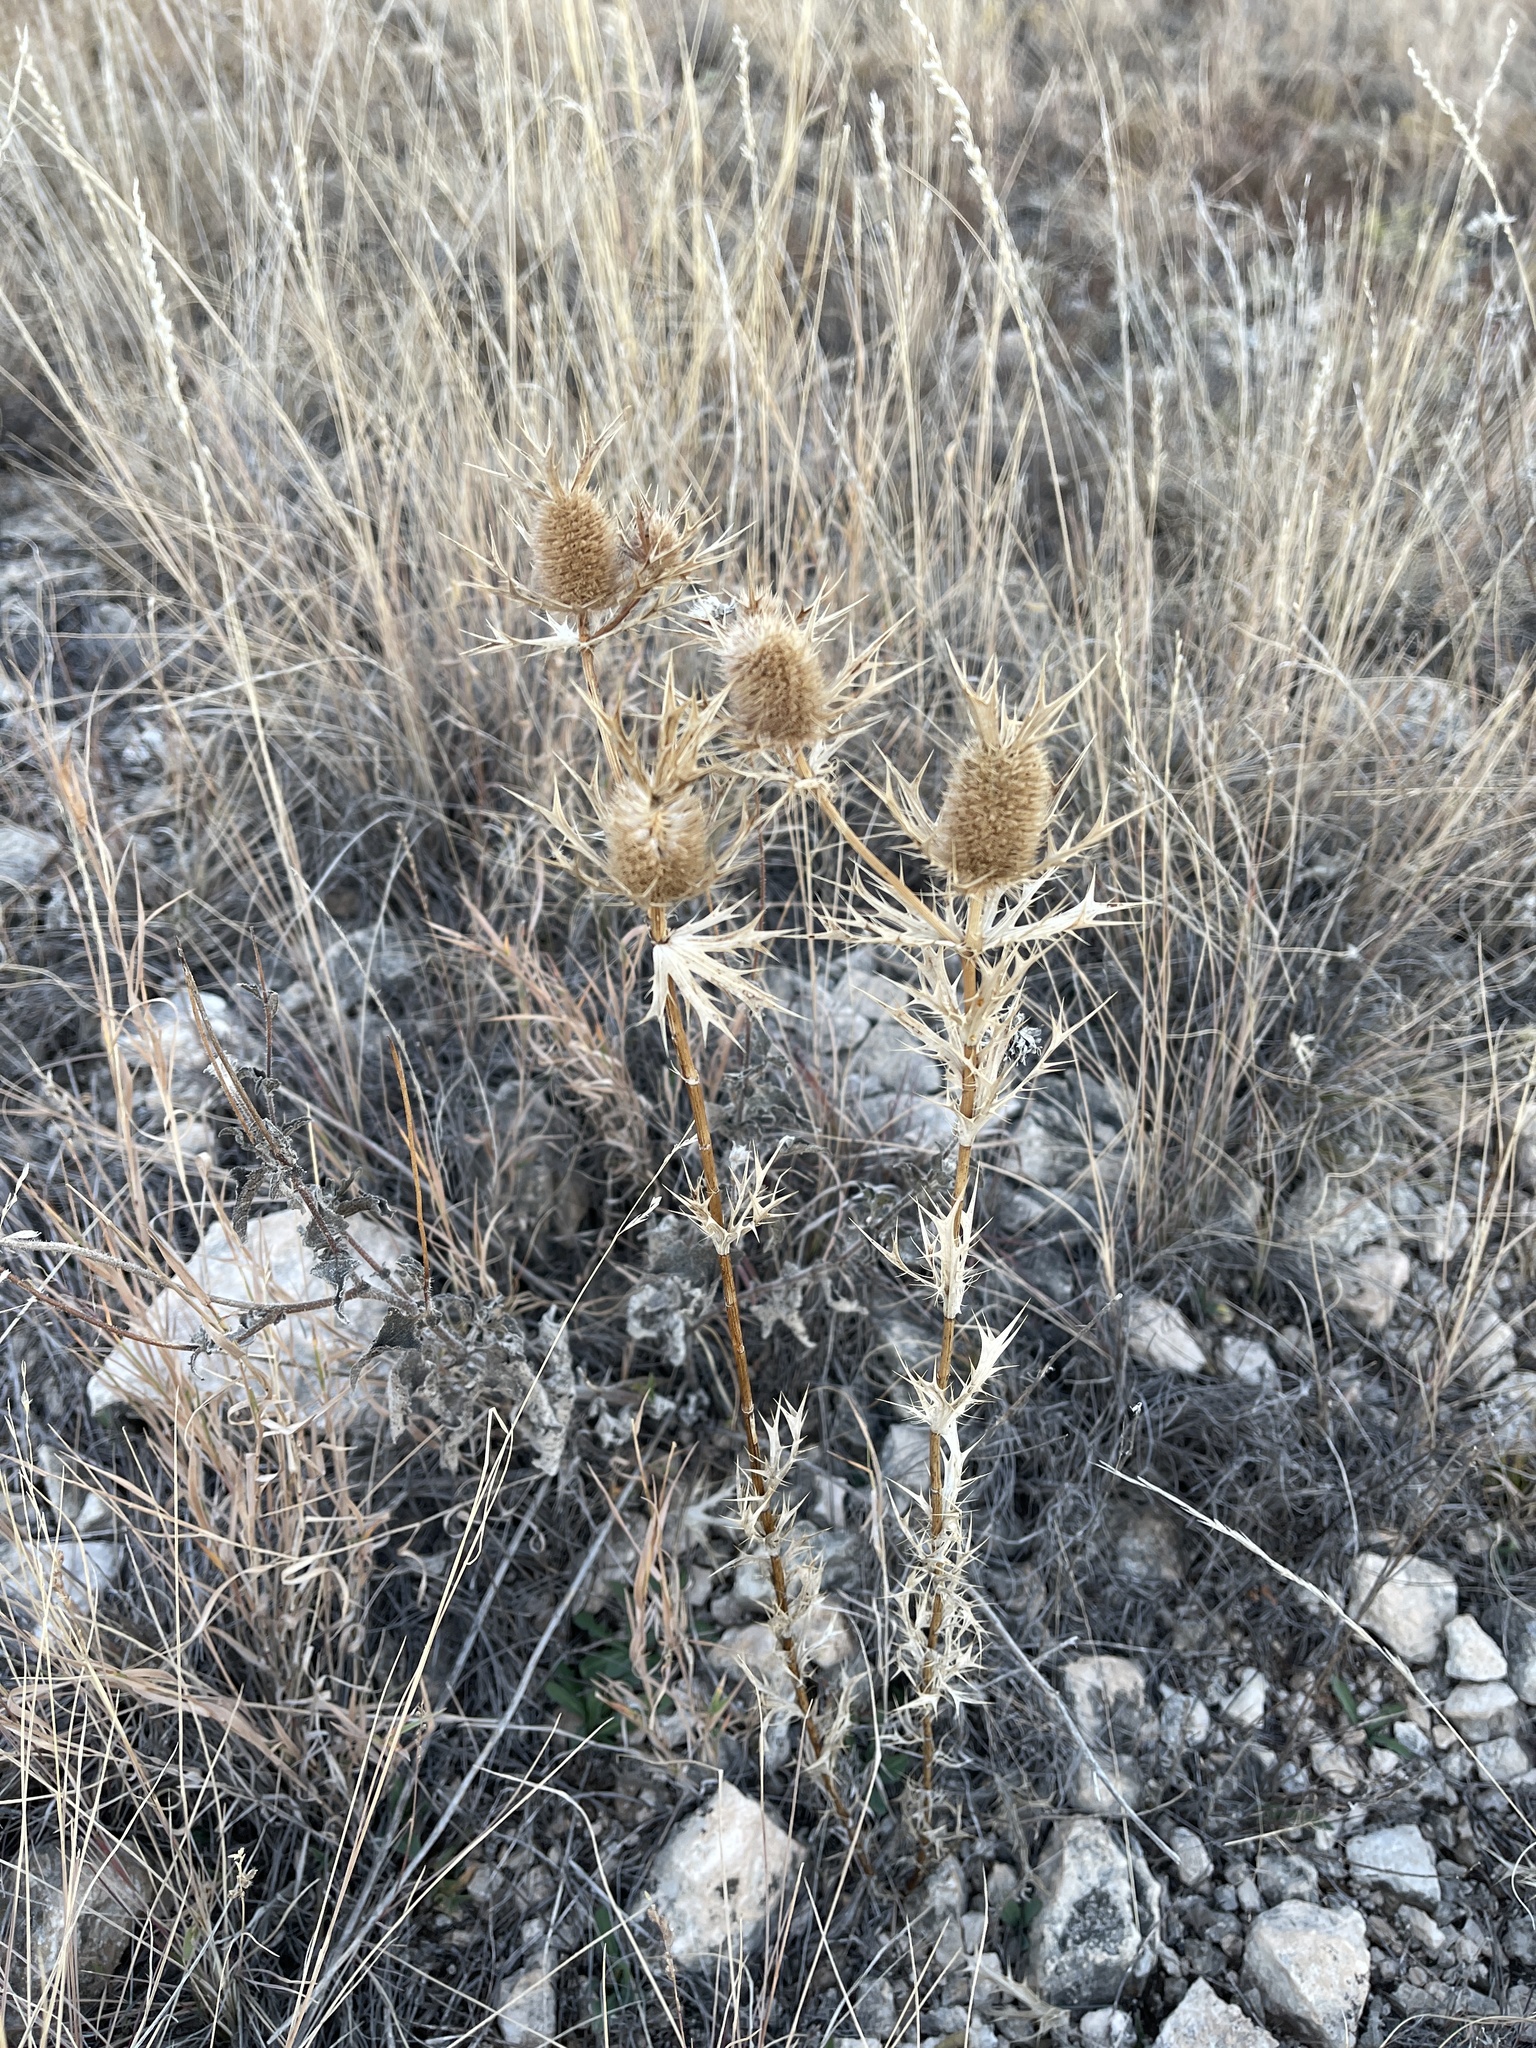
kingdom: Plantae
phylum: Tracheophyta
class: Magnoliopsida
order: Apiales
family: Apiaceae
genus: Eryngium
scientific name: Eryngium leavenworthii
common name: Leavenworth's eryngo
